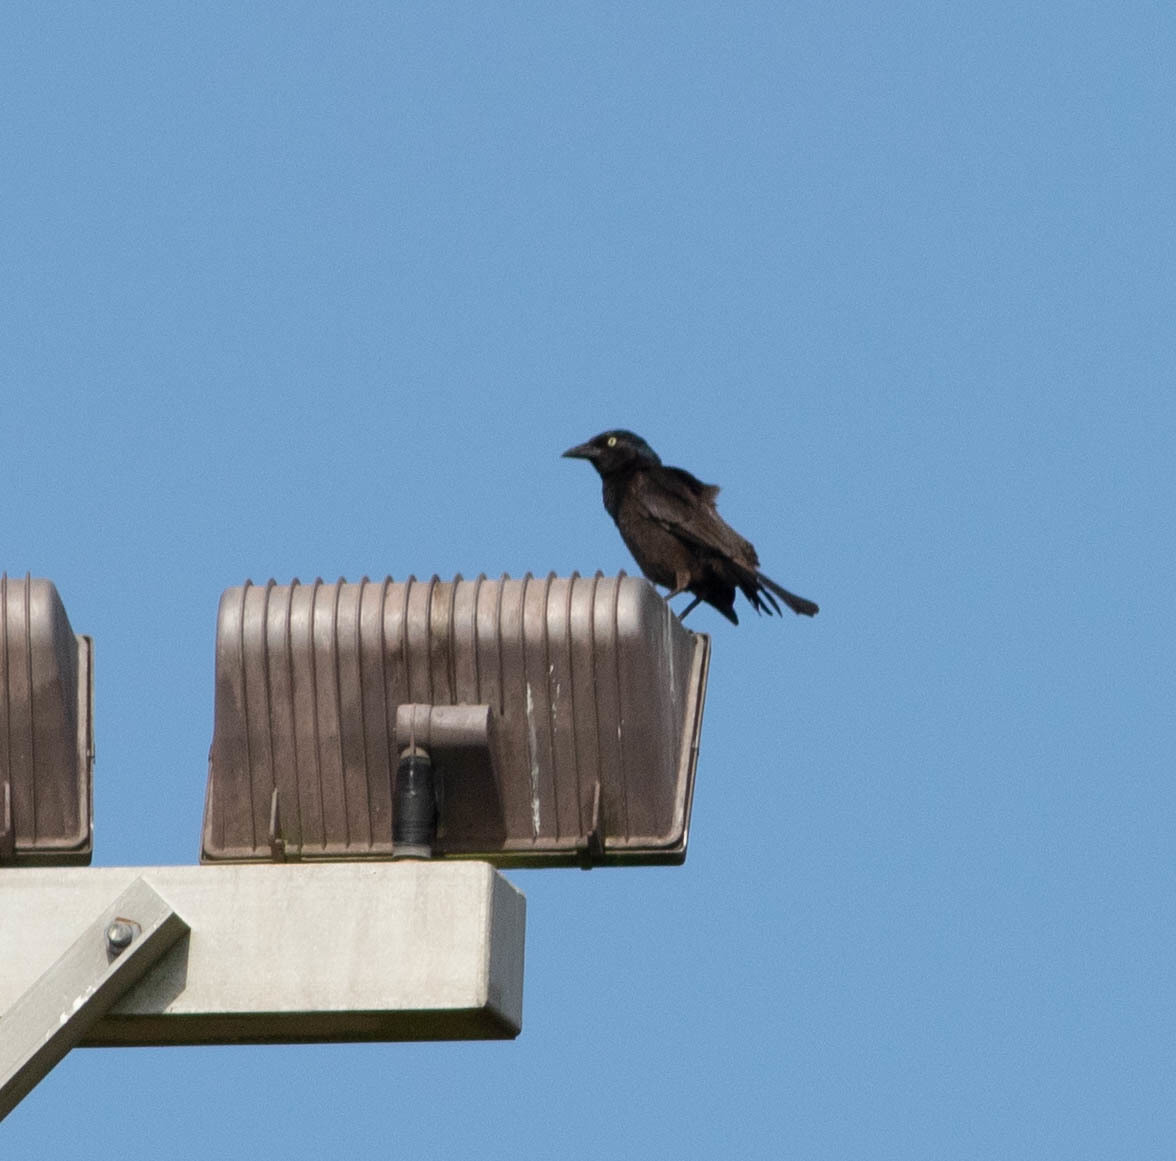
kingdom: Animalia
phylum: Chordata
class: Aves
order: Passeriformes
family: Icteridae
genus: Quiscalus
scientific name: Quiscalus quiscula
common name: Common grackle
